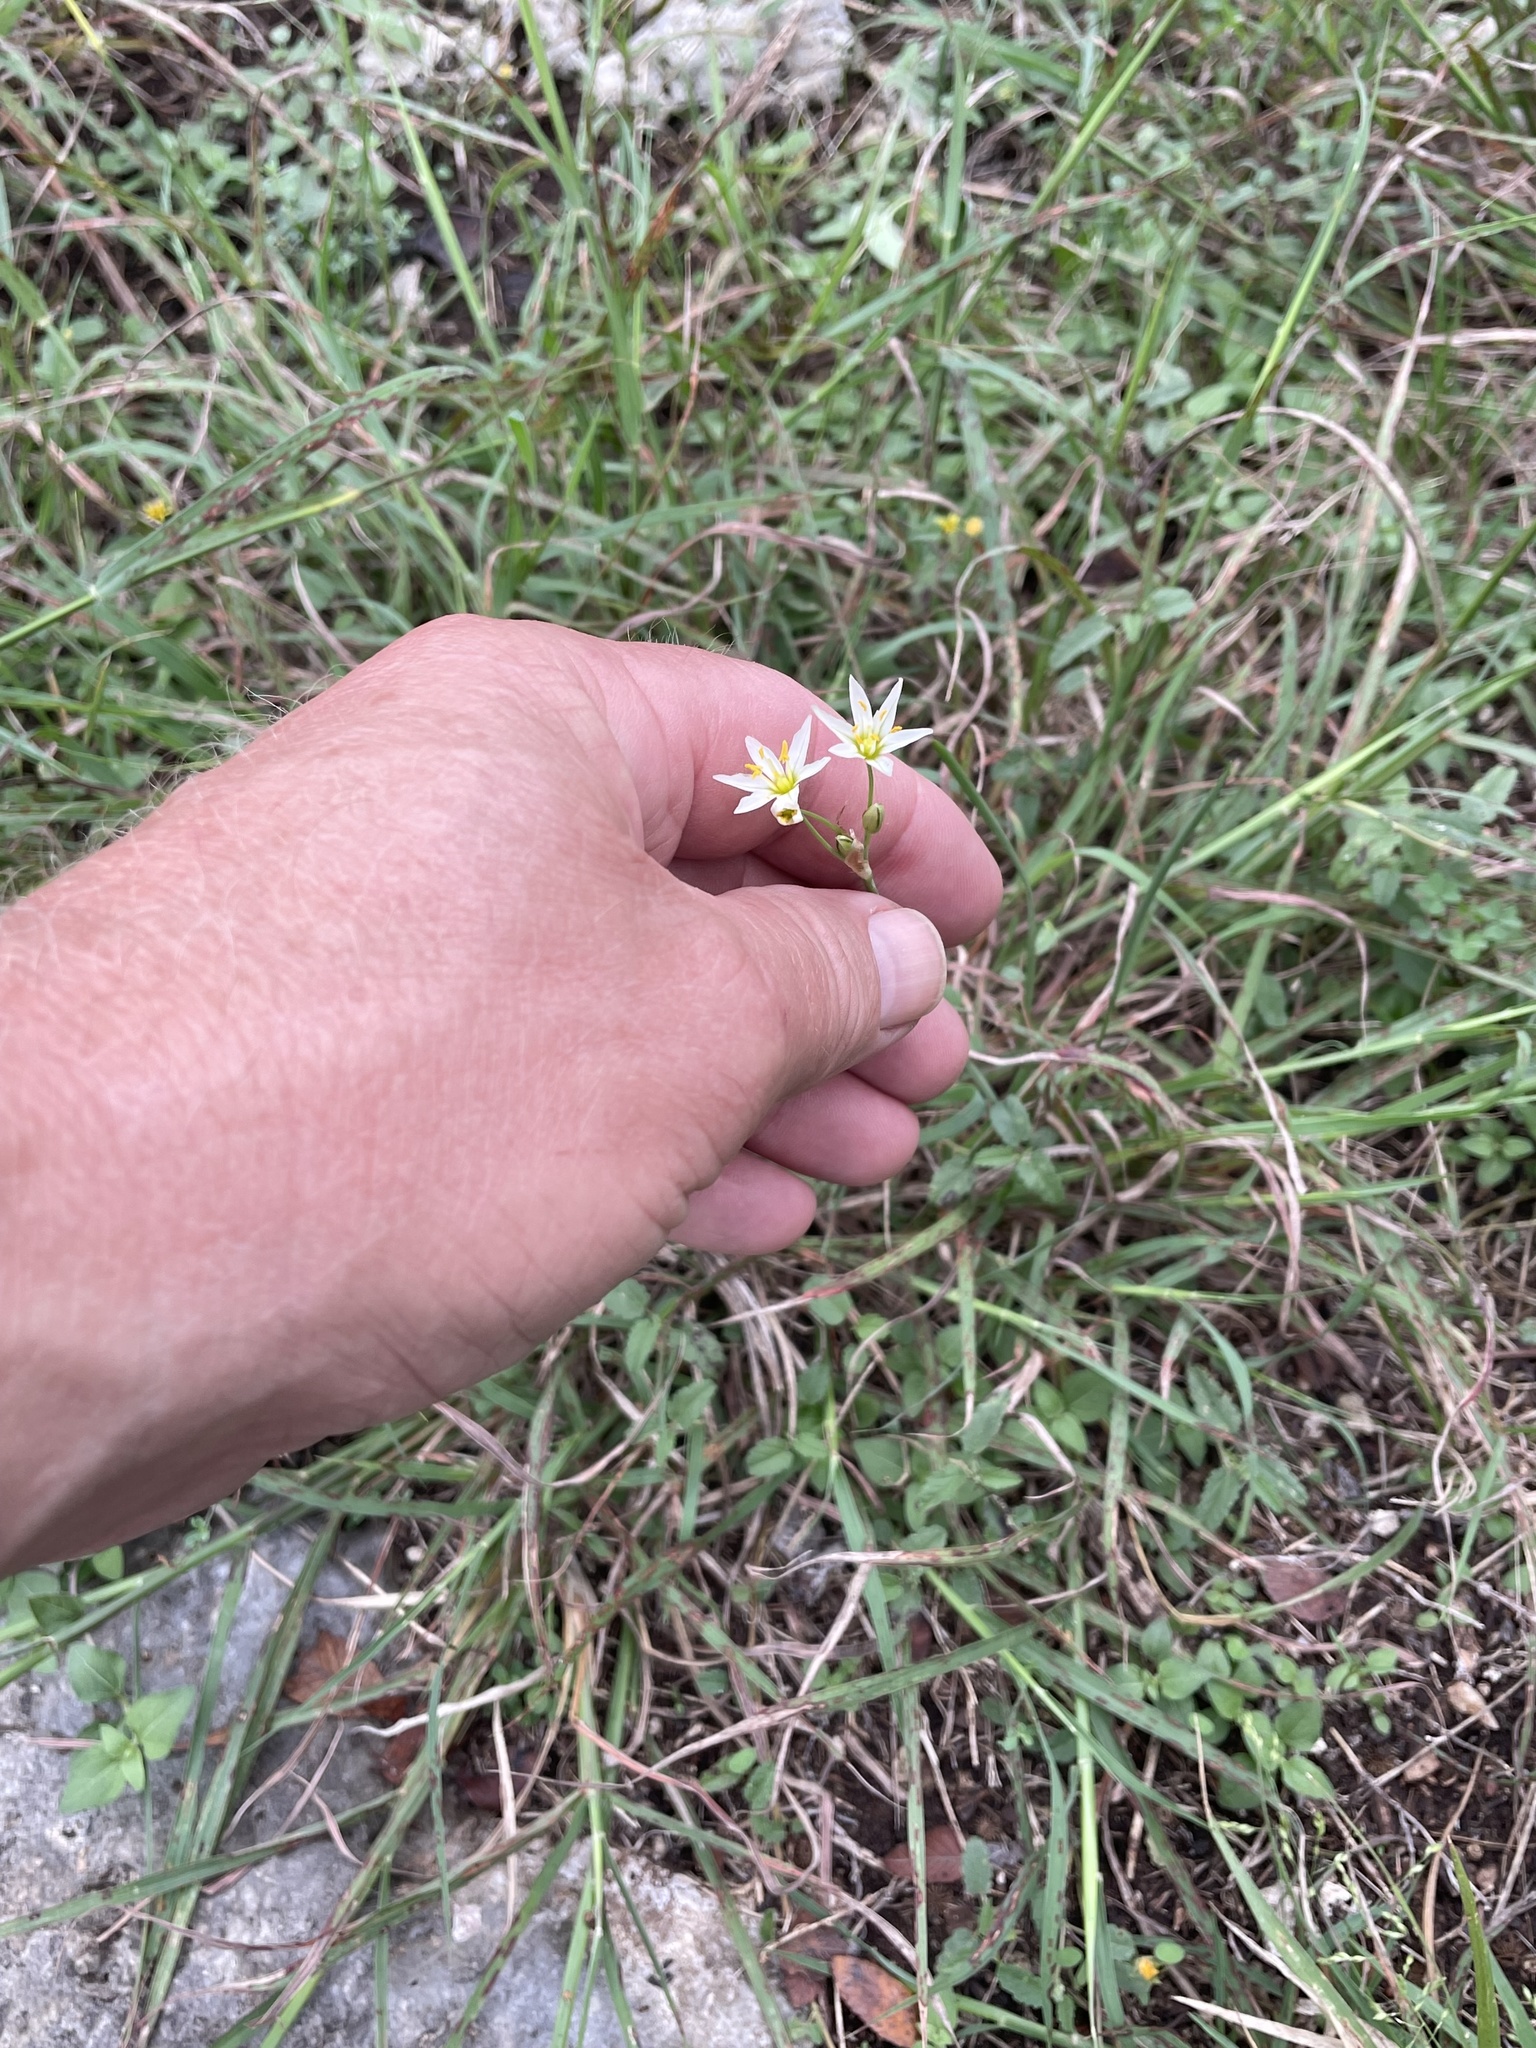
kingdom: Plantae
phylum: Tracheophyta
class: Liliopsida
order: Asparagales
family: Amaryllidaceae
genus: Nothoscordum
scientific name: Nothoscordum bivalve
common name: Crow-poison
